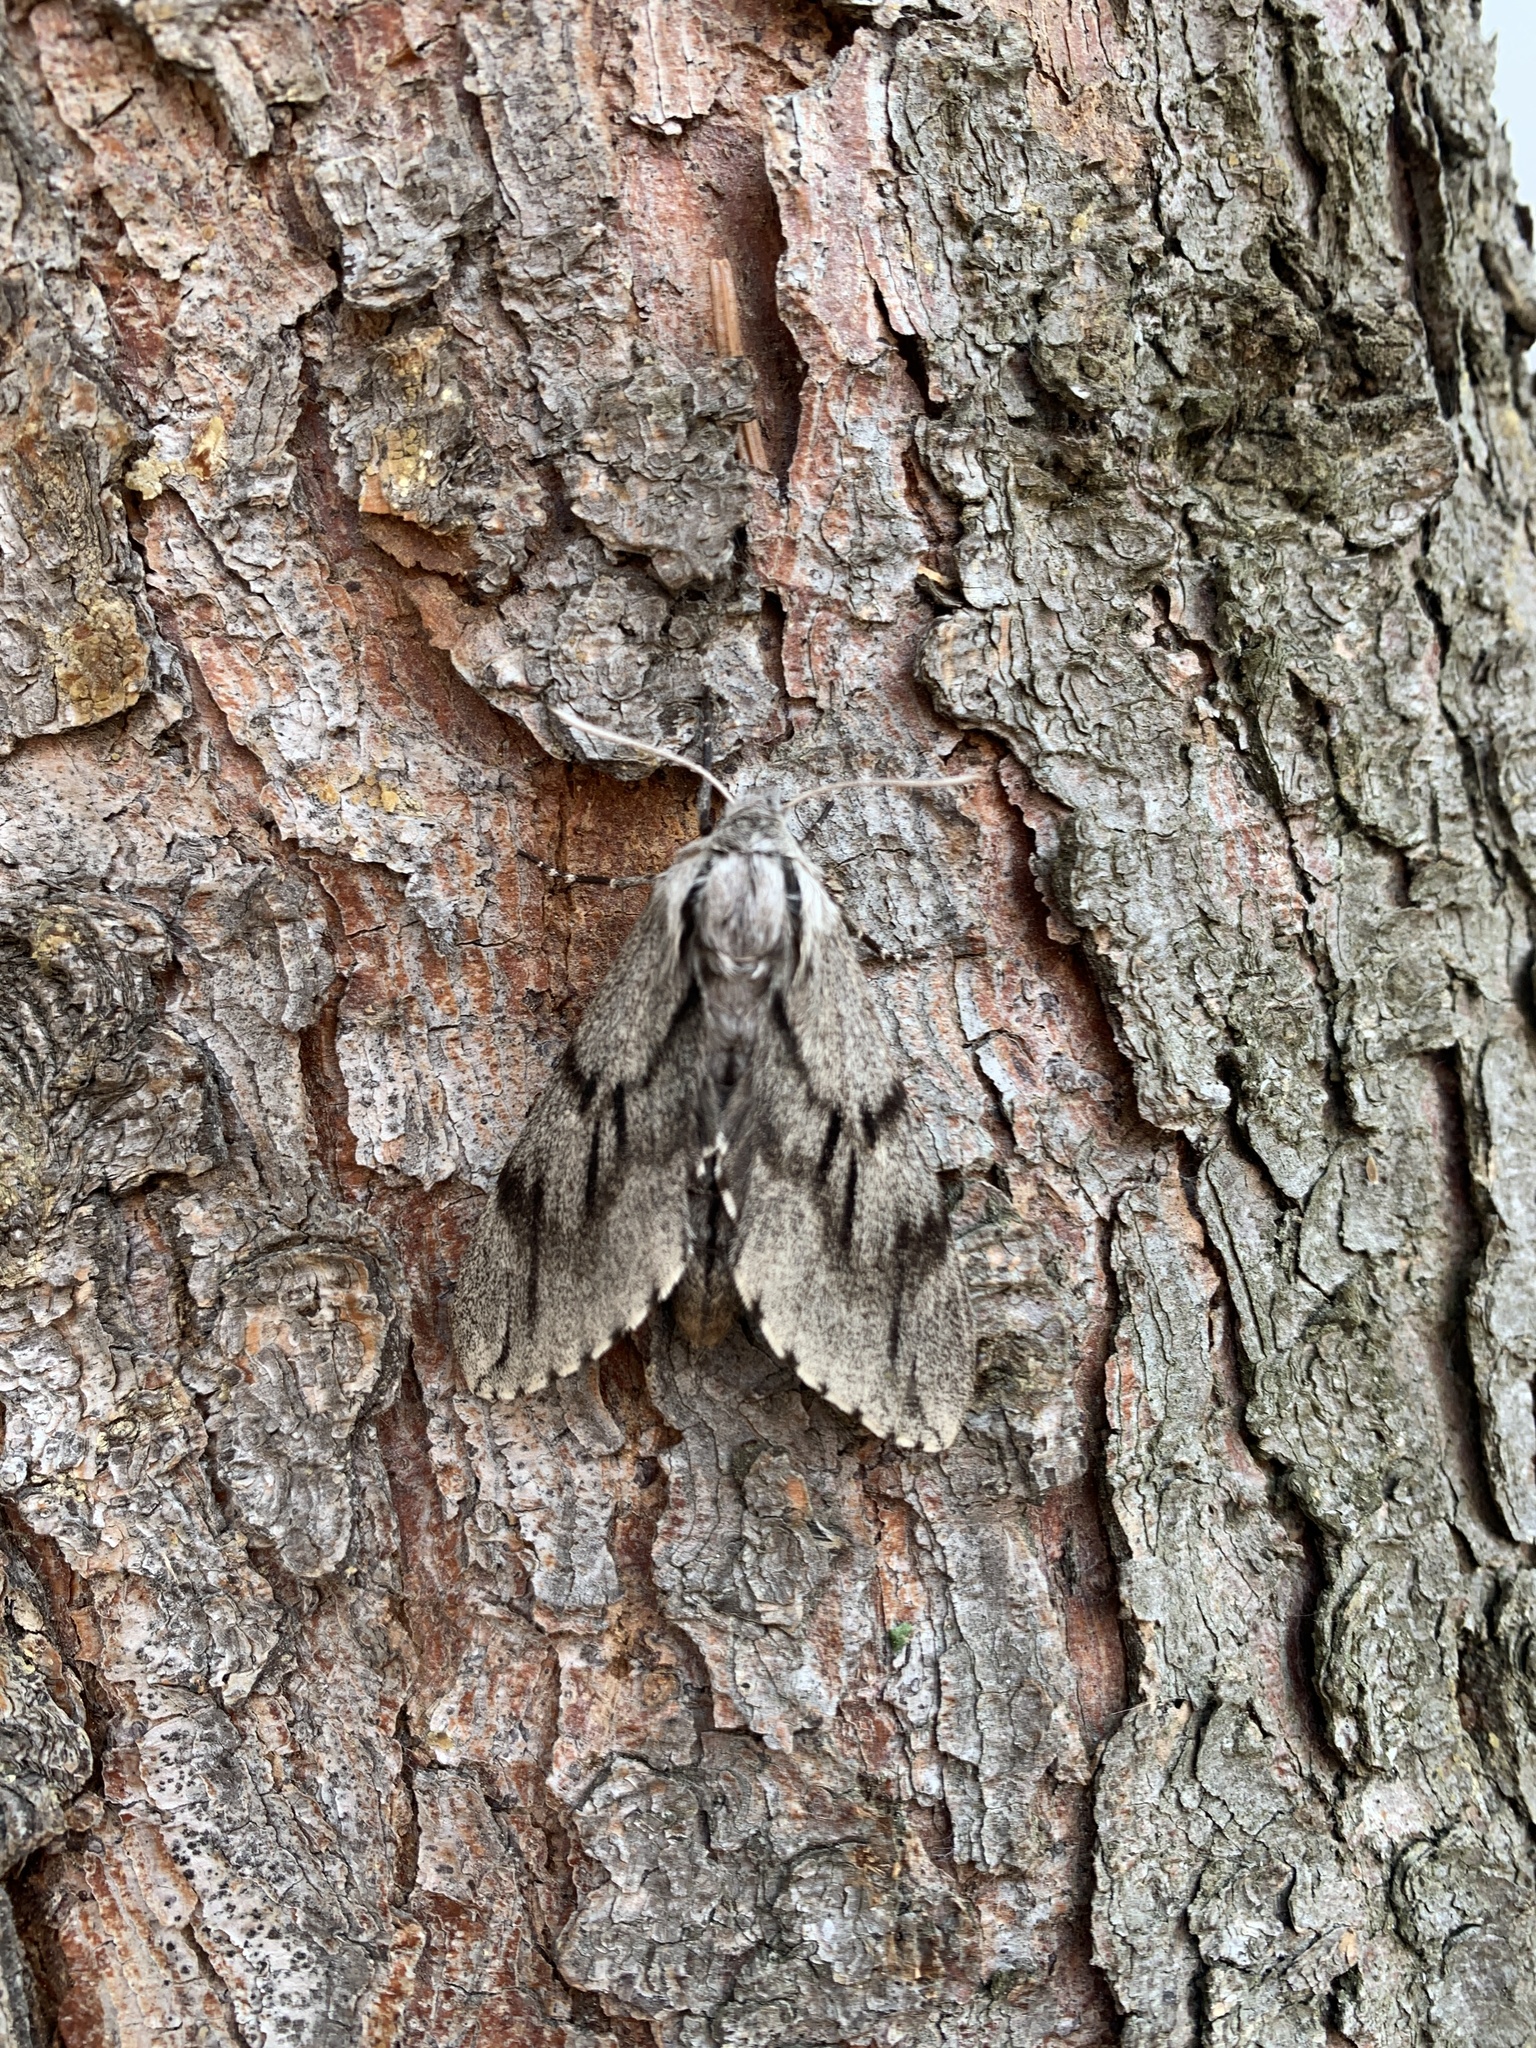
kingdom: Animalia
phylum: Arthropoda
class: Insecta
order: Lepidoptera
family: Sphingidae
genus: Sphinx
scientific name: Sphinx pinastri
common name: Pine hawk-moth
